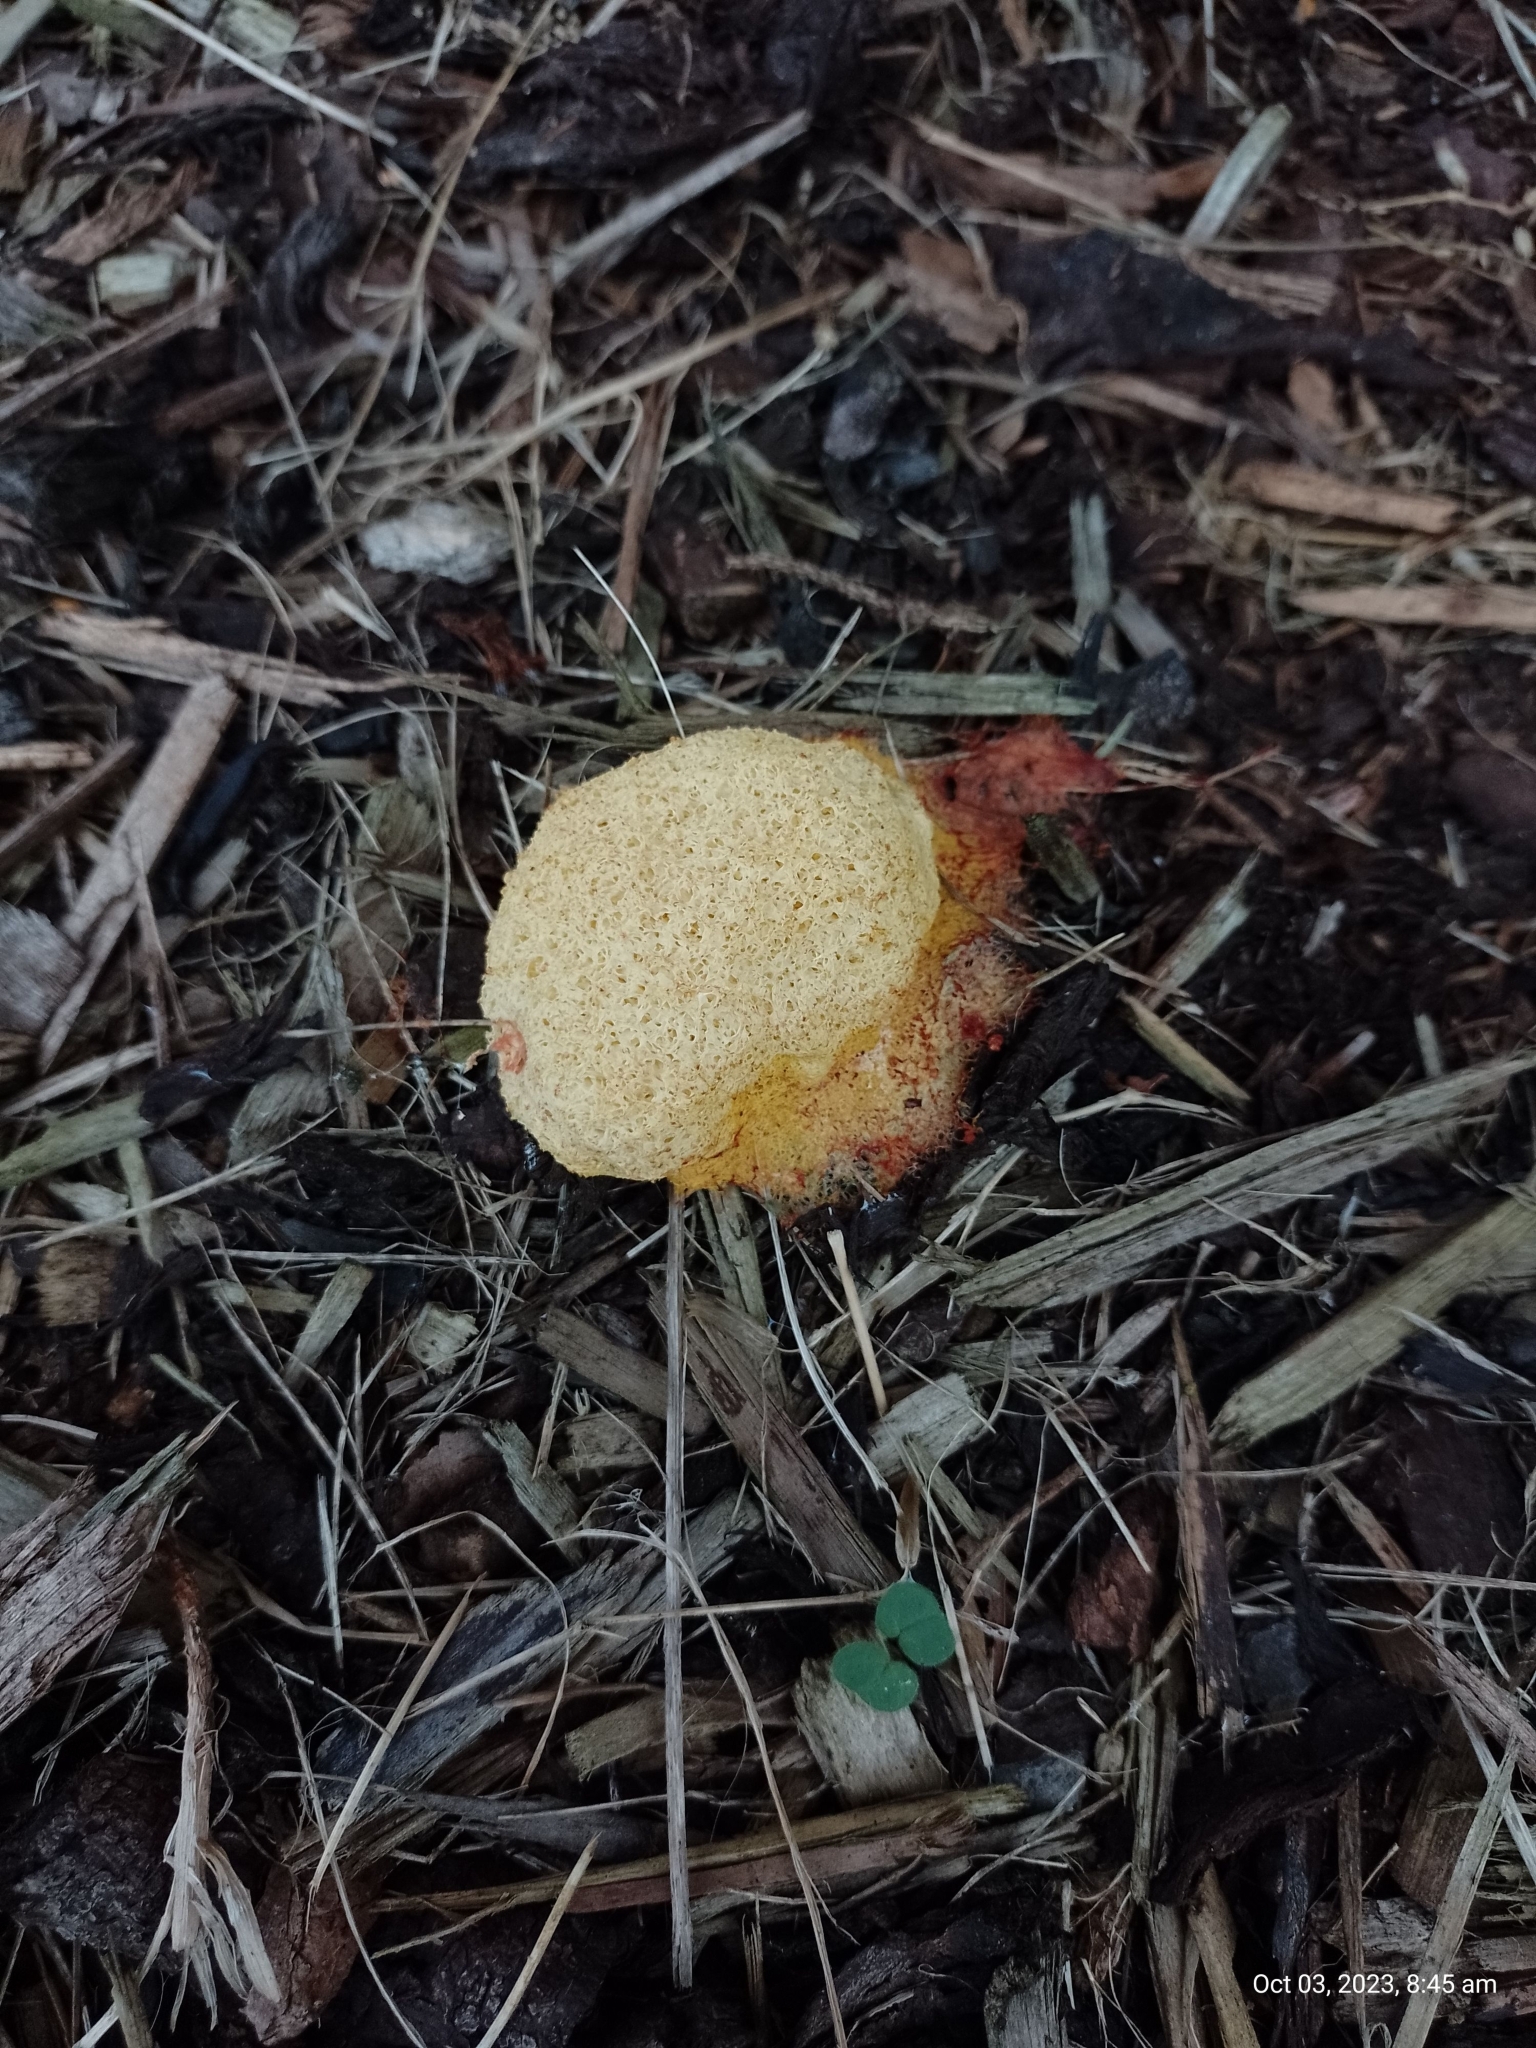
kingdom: Protozoa
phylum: Mycetozoa
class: Myxomycetes
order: Physarales
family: Physaraceae
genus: Fuligo
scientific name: Fuligo septica
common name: Dog vomit slime mold
